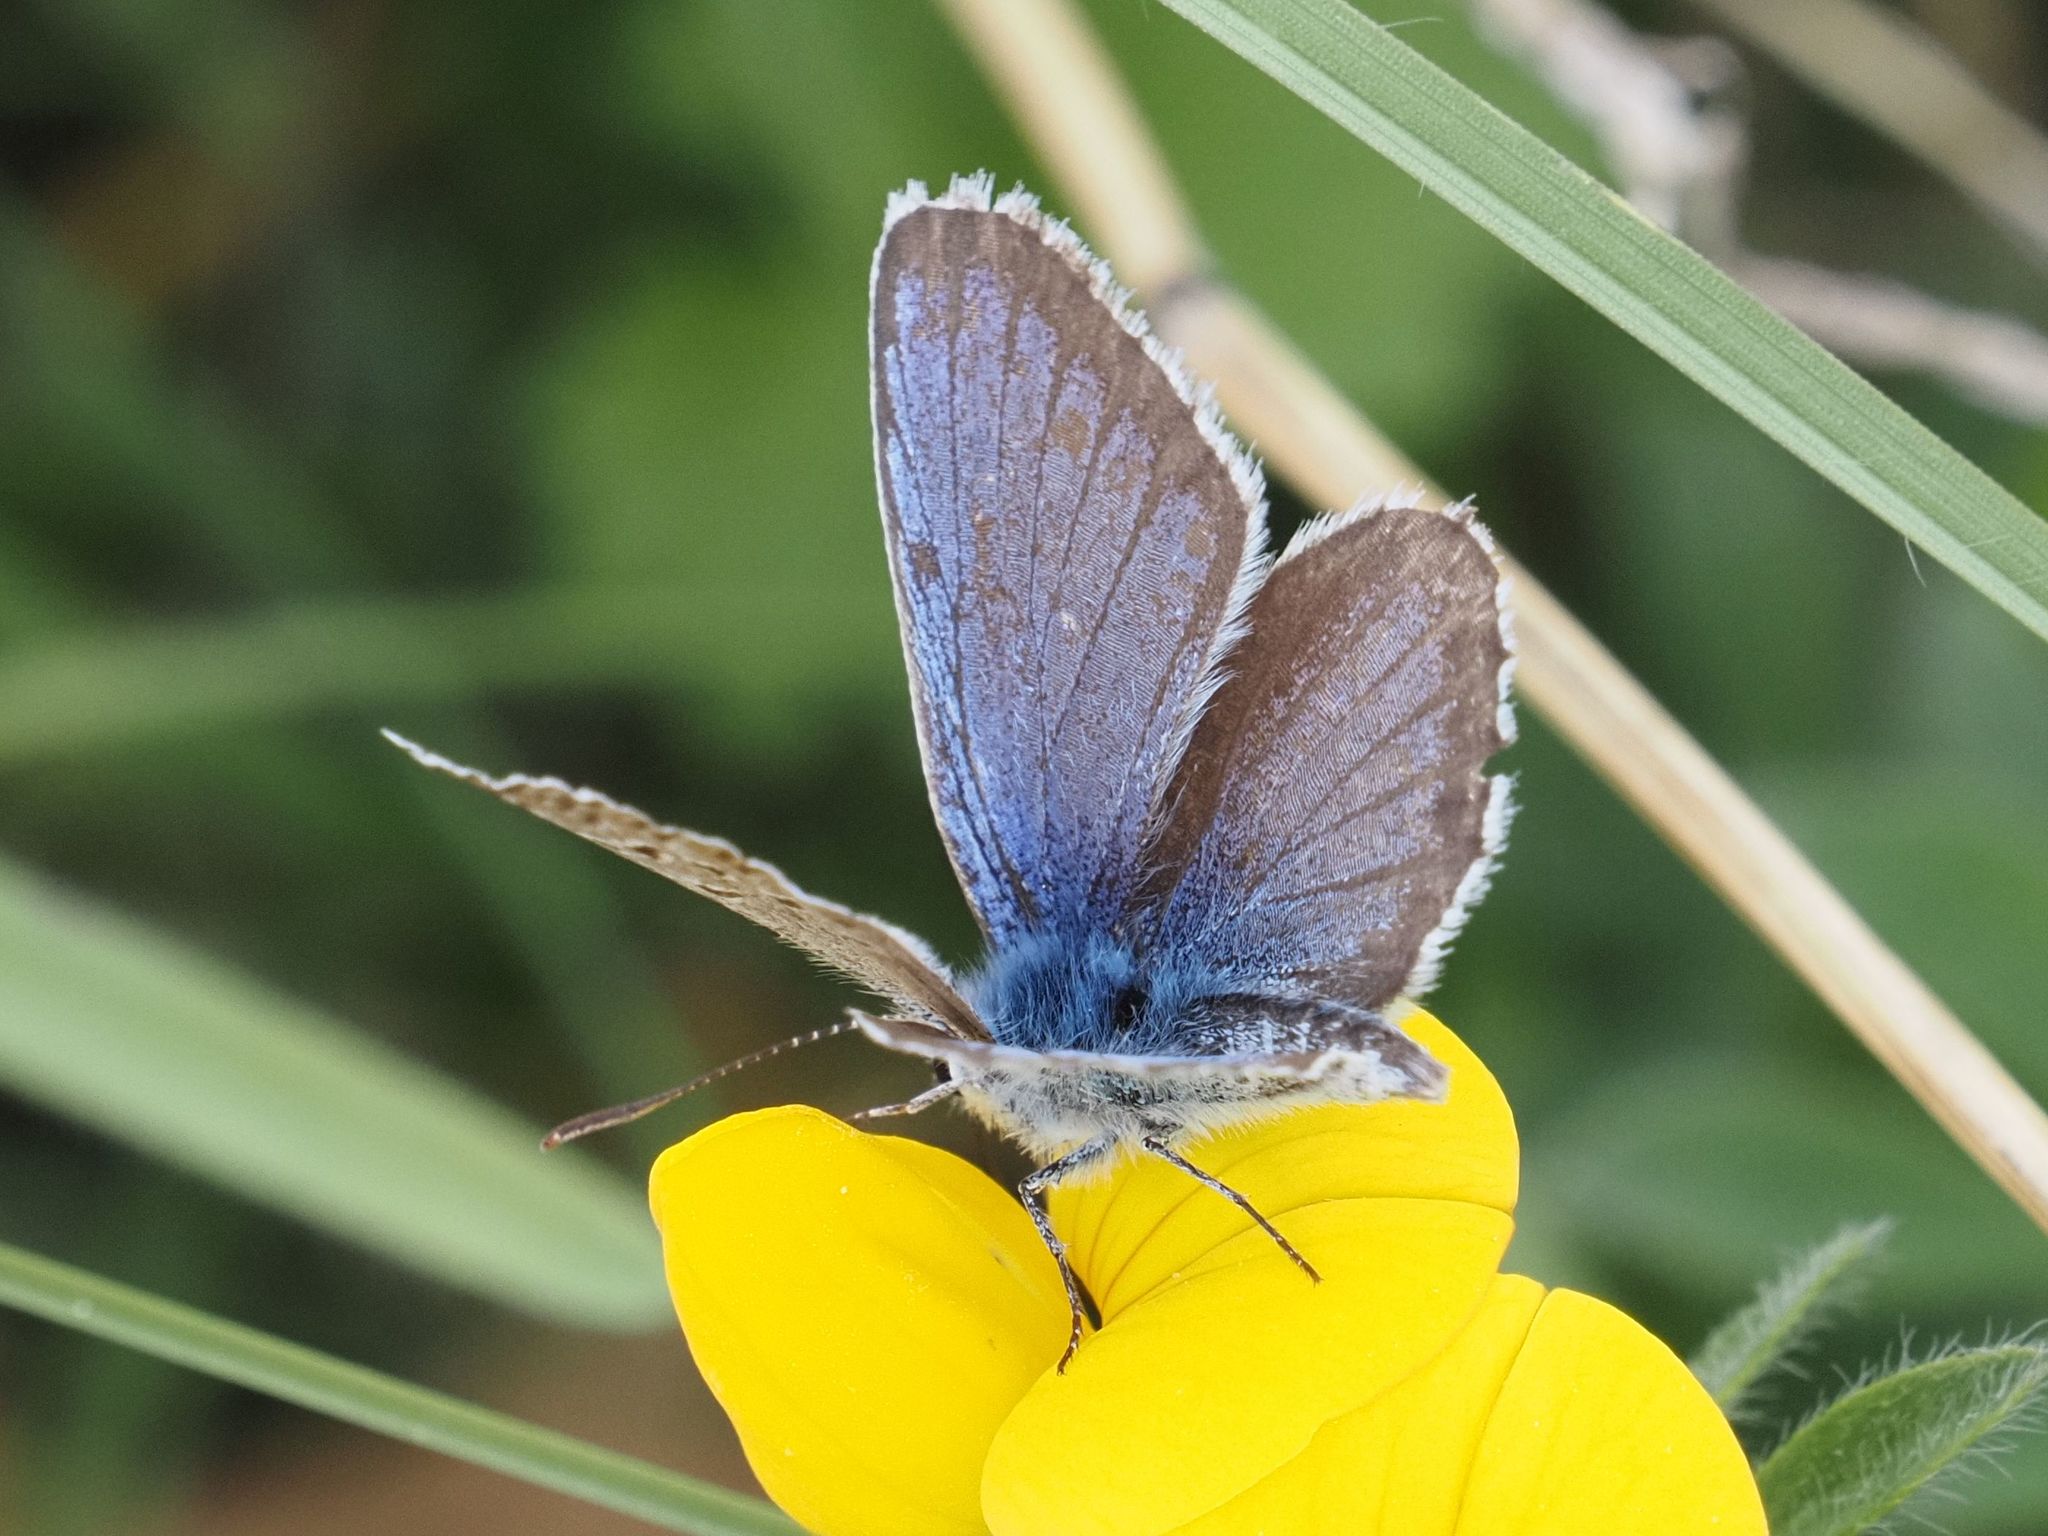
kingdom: Animalia
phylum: Arthropoda
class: Insecta
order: Lepidoptera
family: Lycaenidae
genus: Plebejus
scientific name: Plebejus argus
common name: Silver-studded blue
